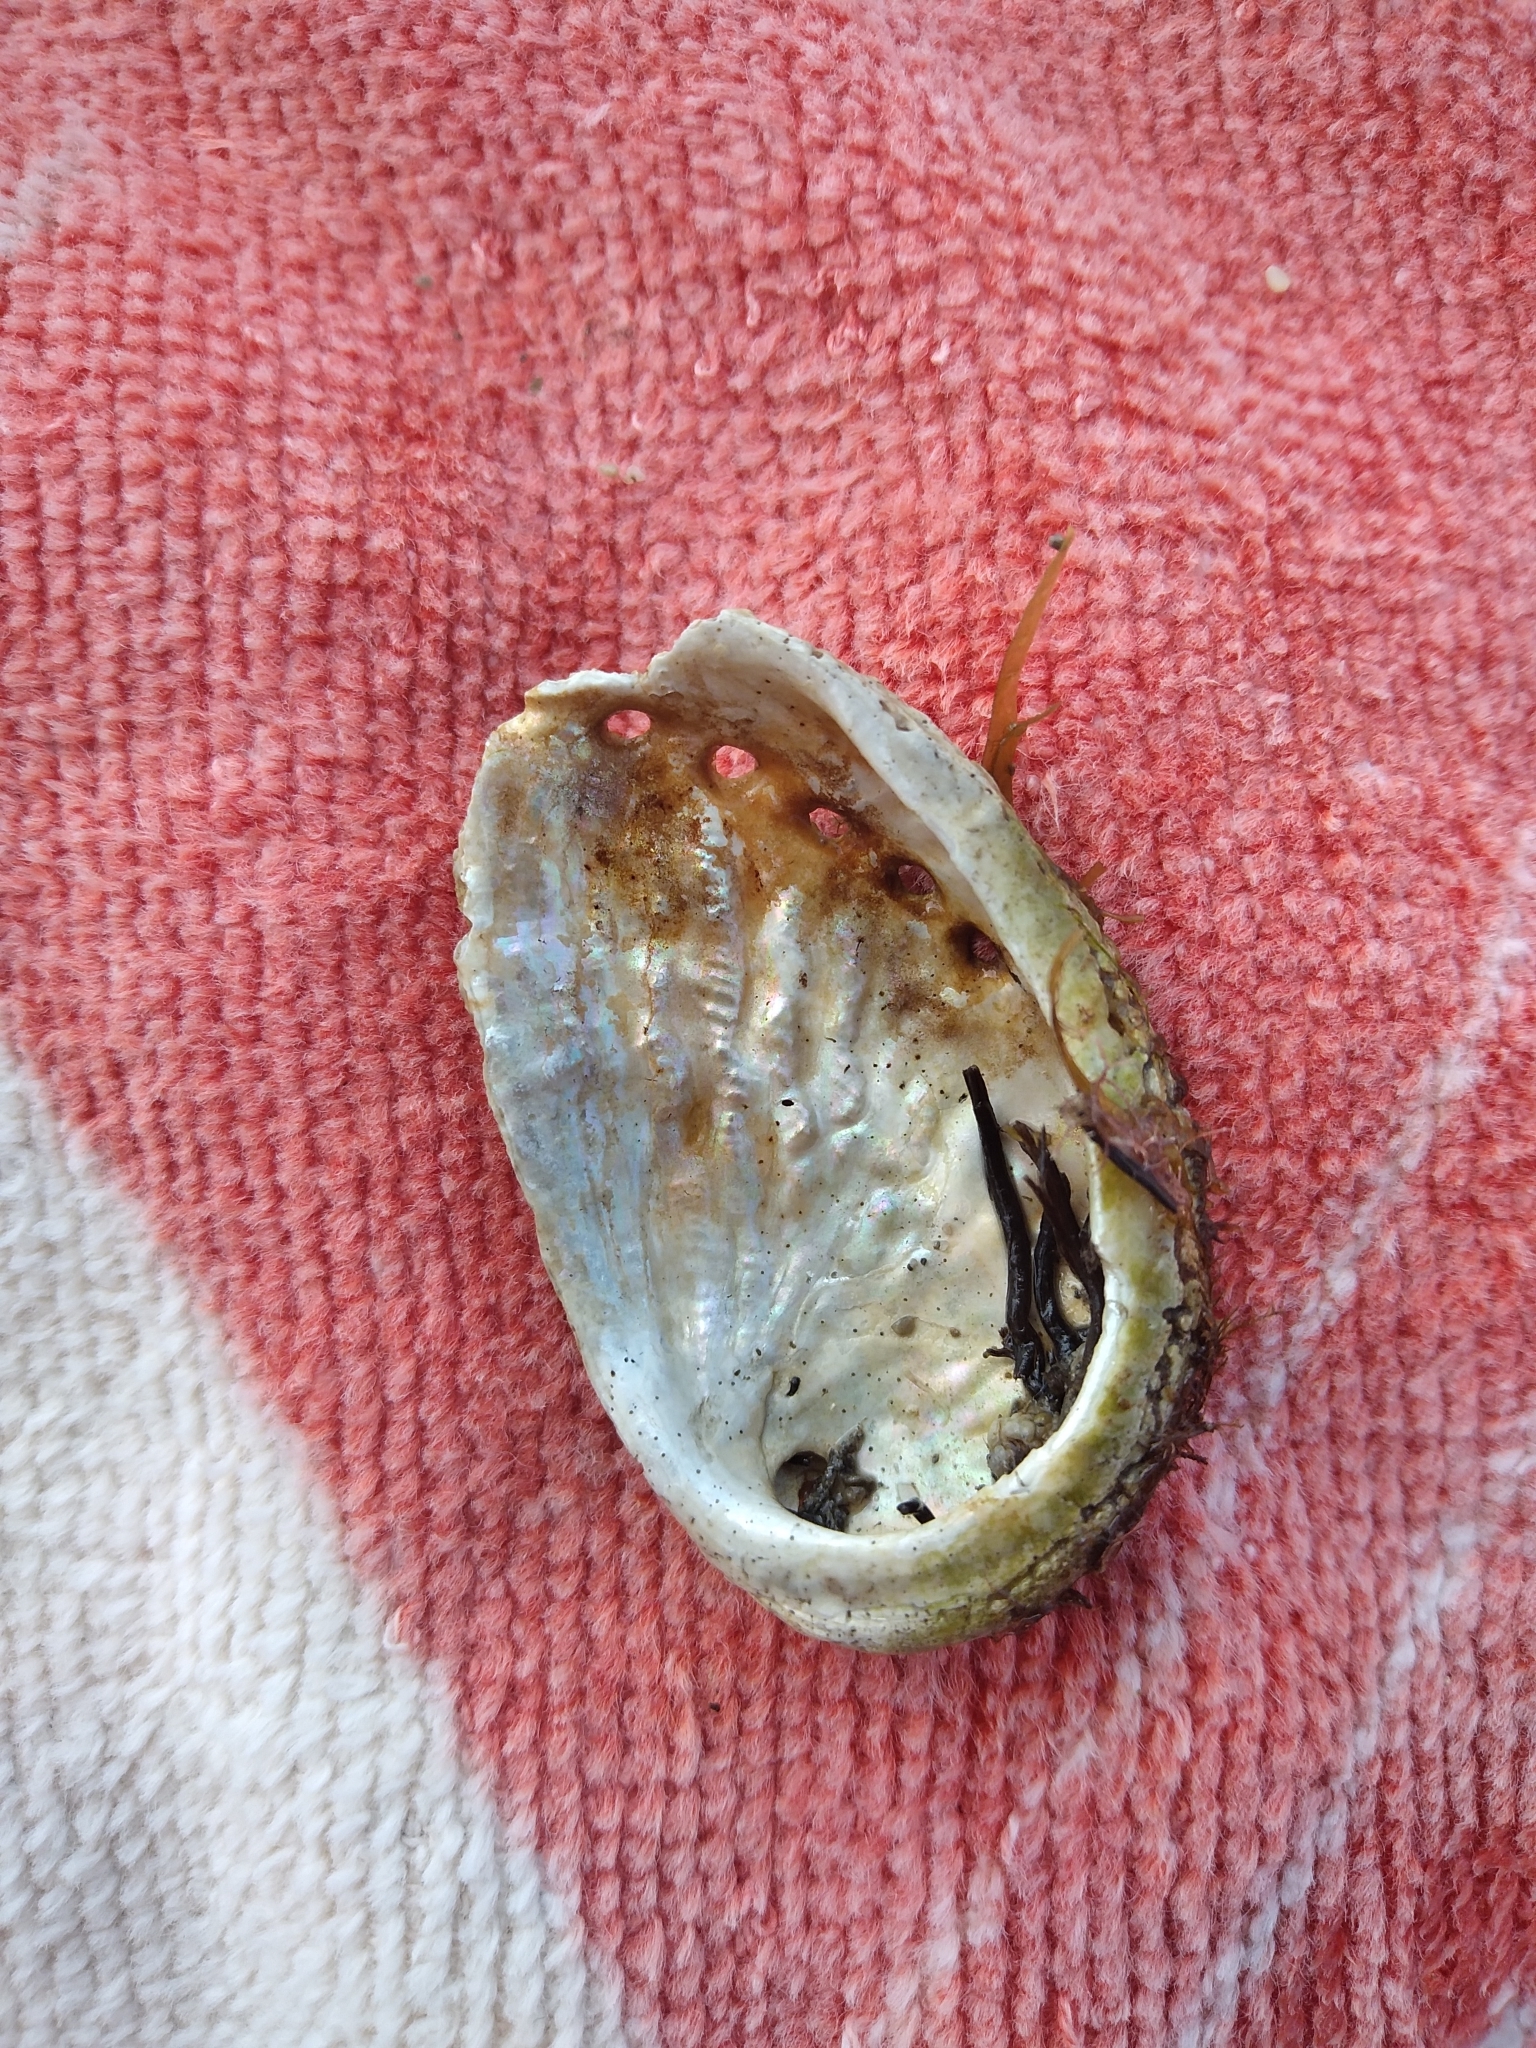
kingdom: Animalia
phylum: Mollusca
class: Gastropoda
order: Lepetellida
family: Haliotidae
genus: Haliotis
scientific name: Haliotis tuberculata
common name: Green ormer
